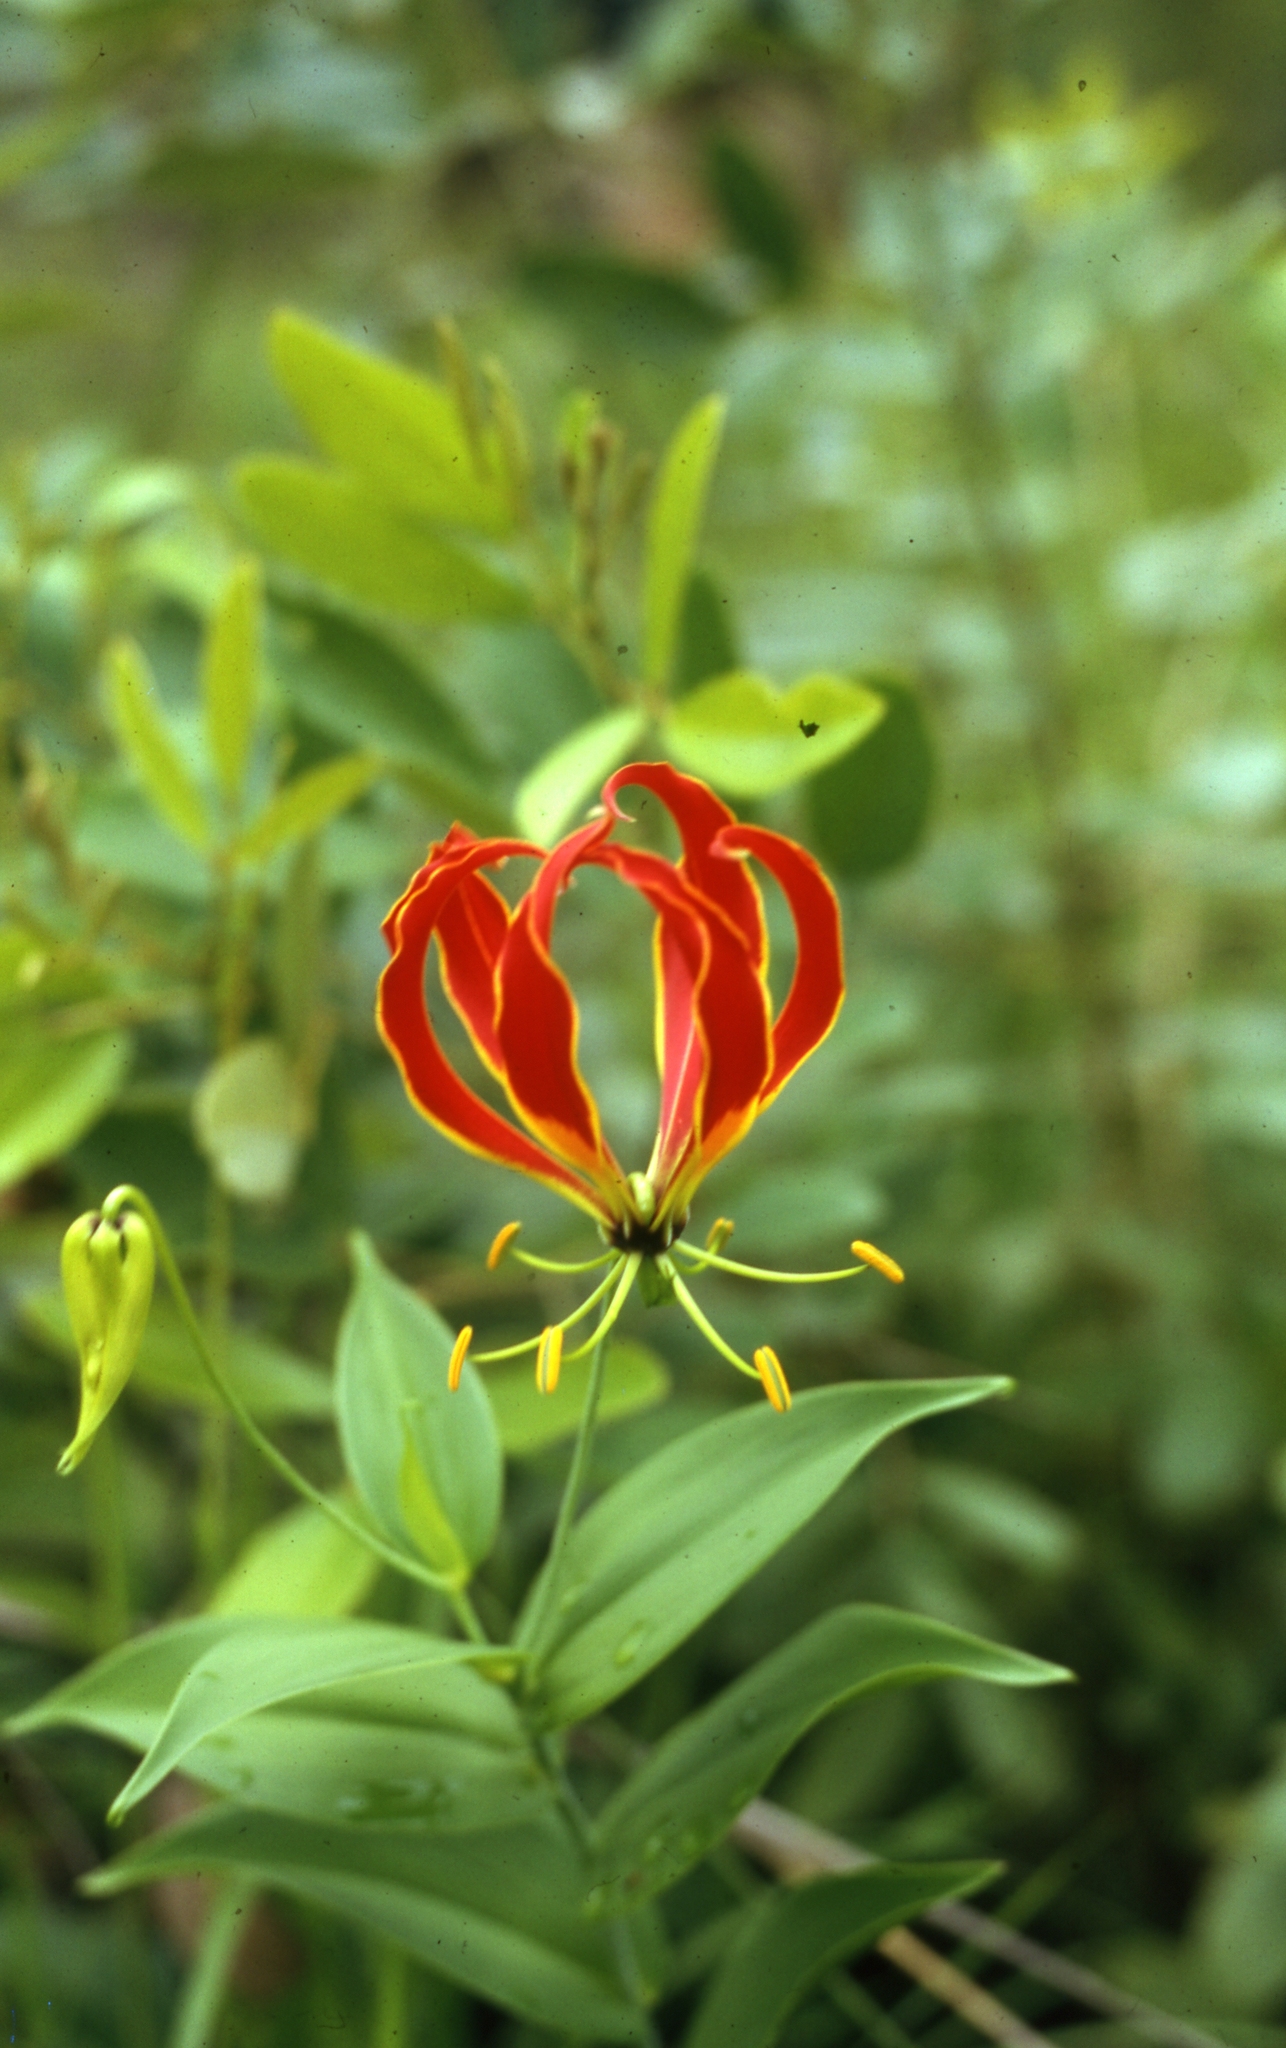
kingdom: Plantae
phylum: Tracheophyta
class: Liliopsida
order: Liliales
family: Colchicaceae
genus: Gloriosa
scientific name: Gloriosa superba
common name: Flame lily
